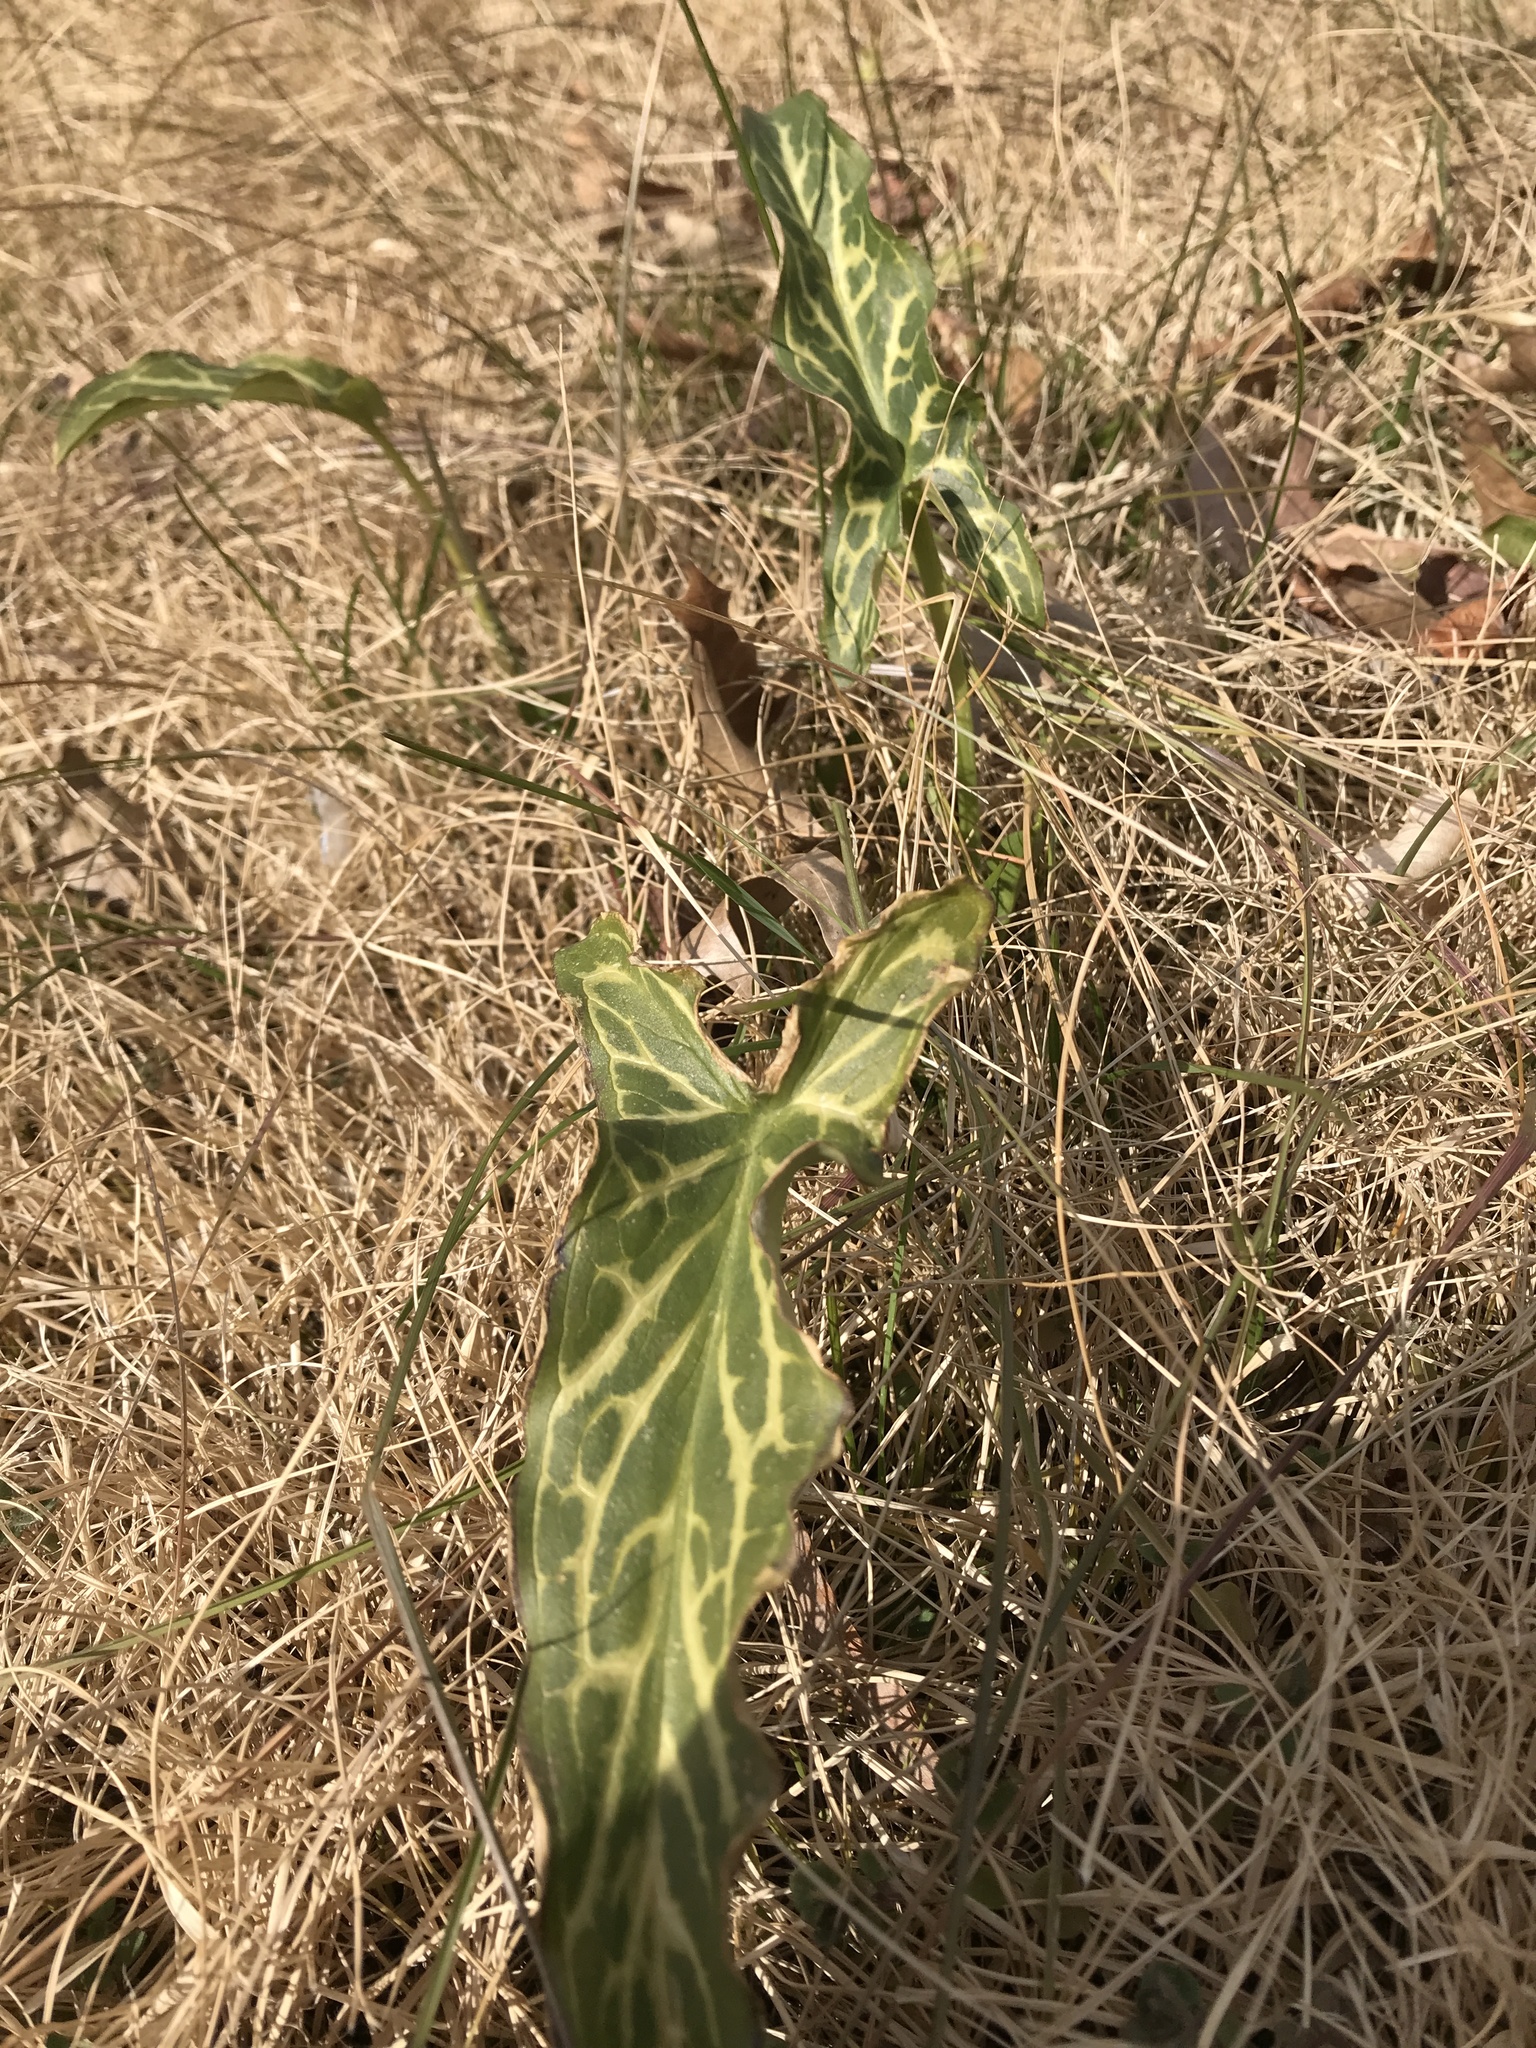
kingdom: Plantae
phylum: Tracheophyta
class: Liliopsida
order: Alismatales
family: Araceae
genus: Arum
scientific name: Arum italicum
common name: Italian lords-and-ladies
